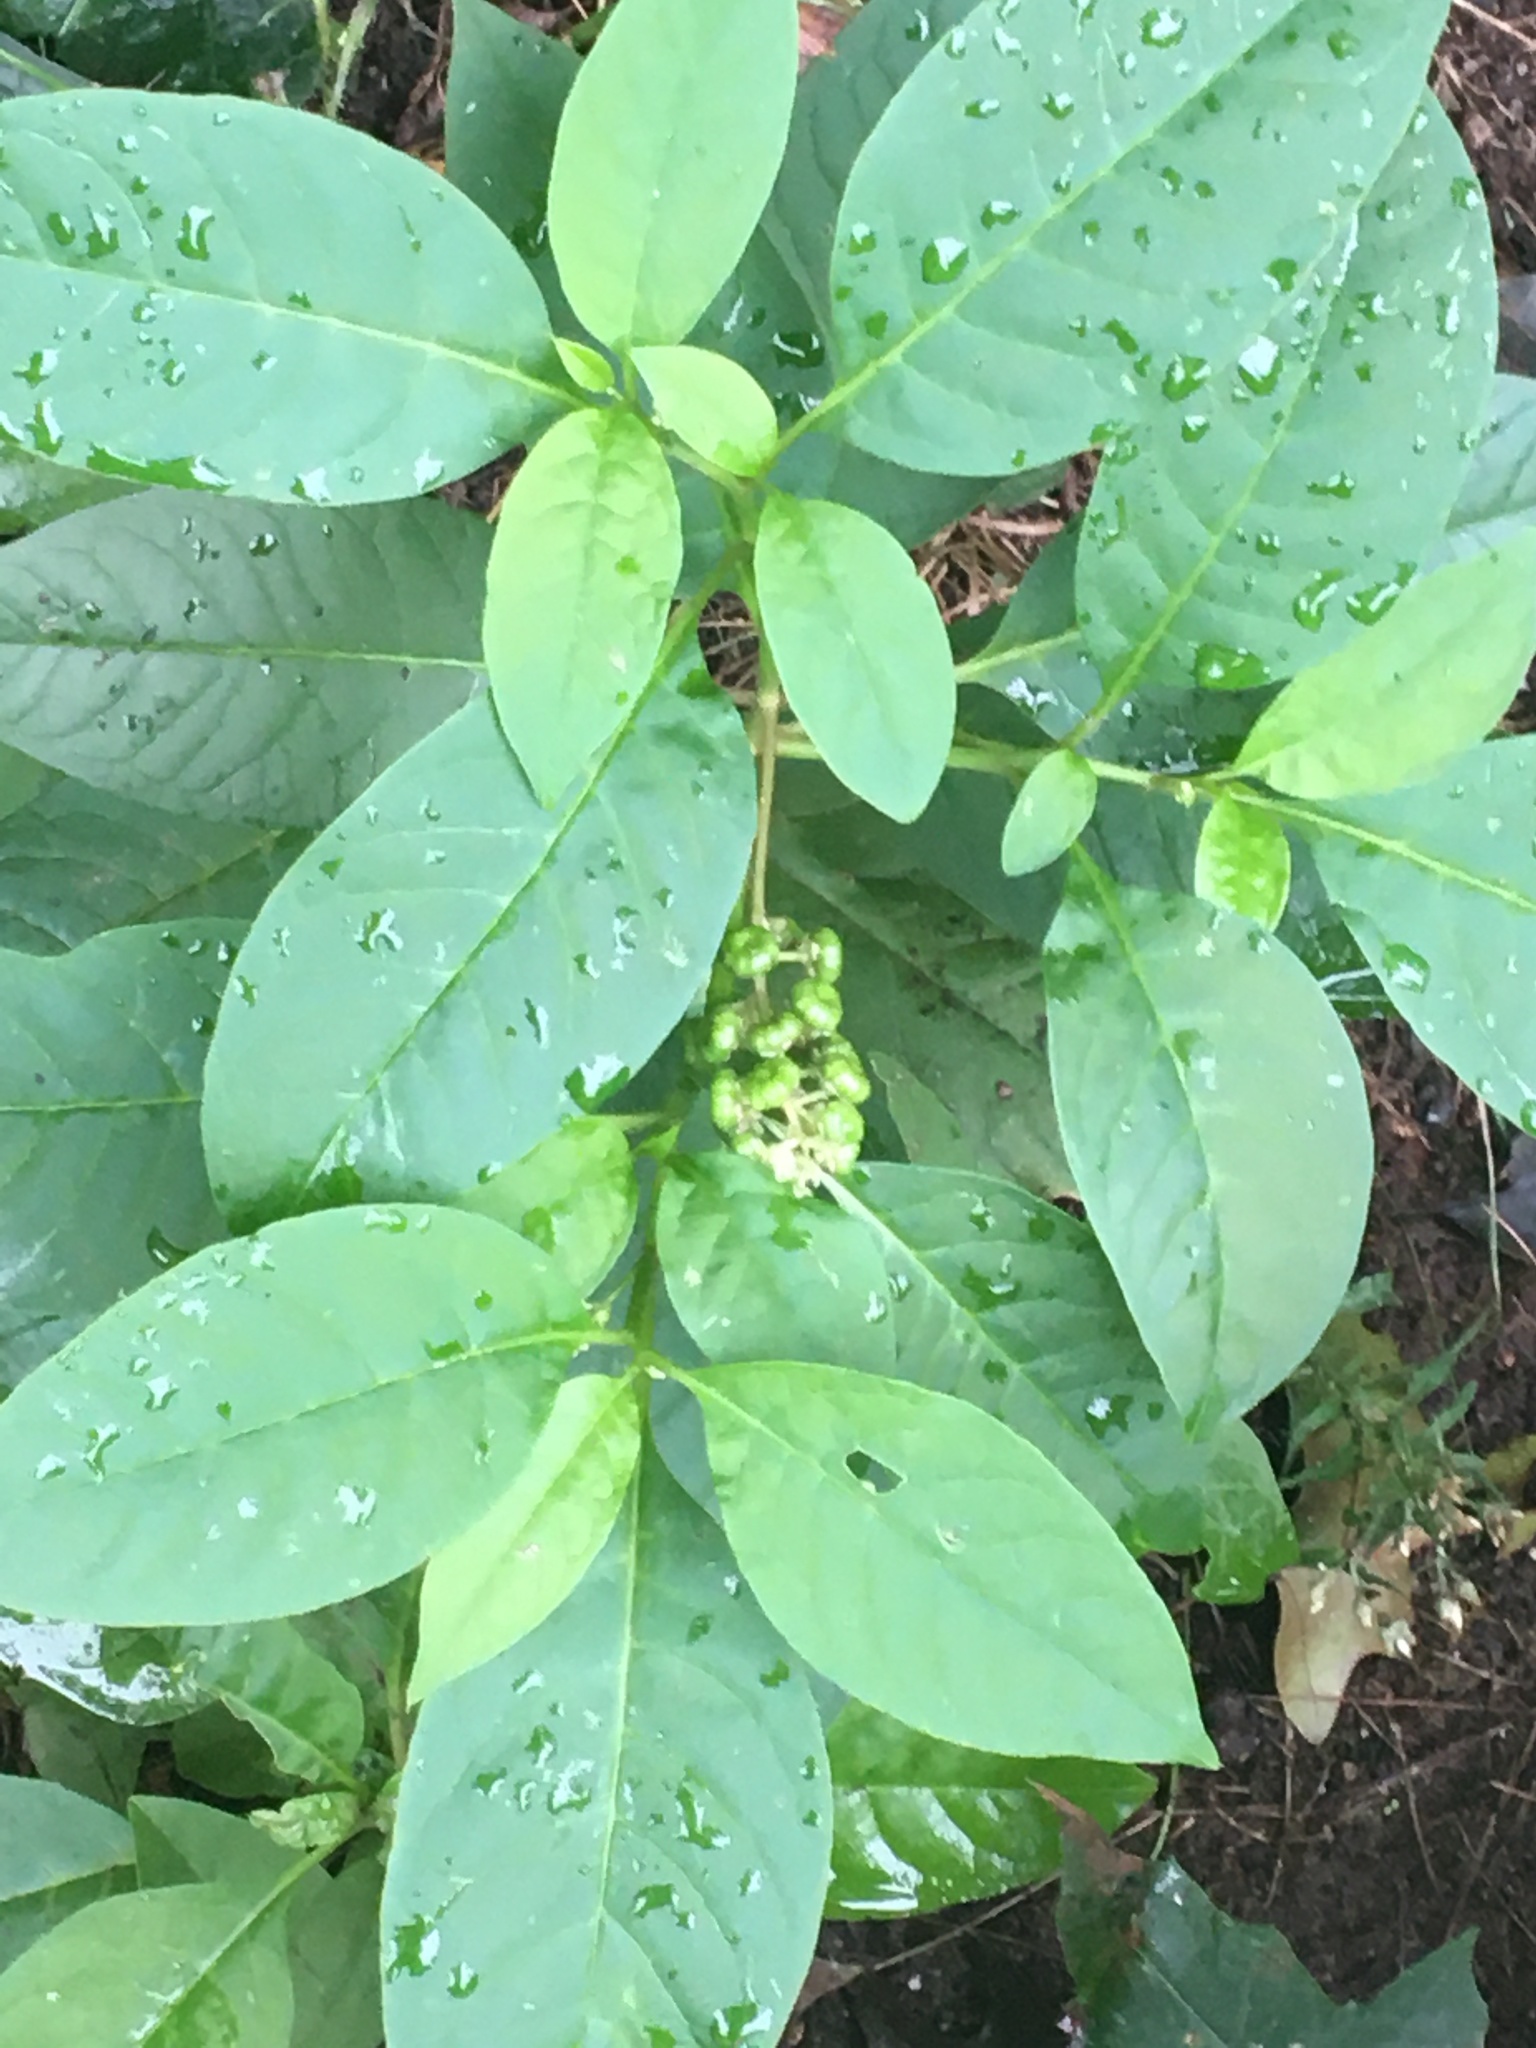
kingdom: Plantae
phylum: Tracheophyta
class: Magnoliopsida
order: Caryophyllales
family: Phytolaccaceae
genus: Phytolacca
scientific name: Phytolacca americana
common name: American pokeweed
